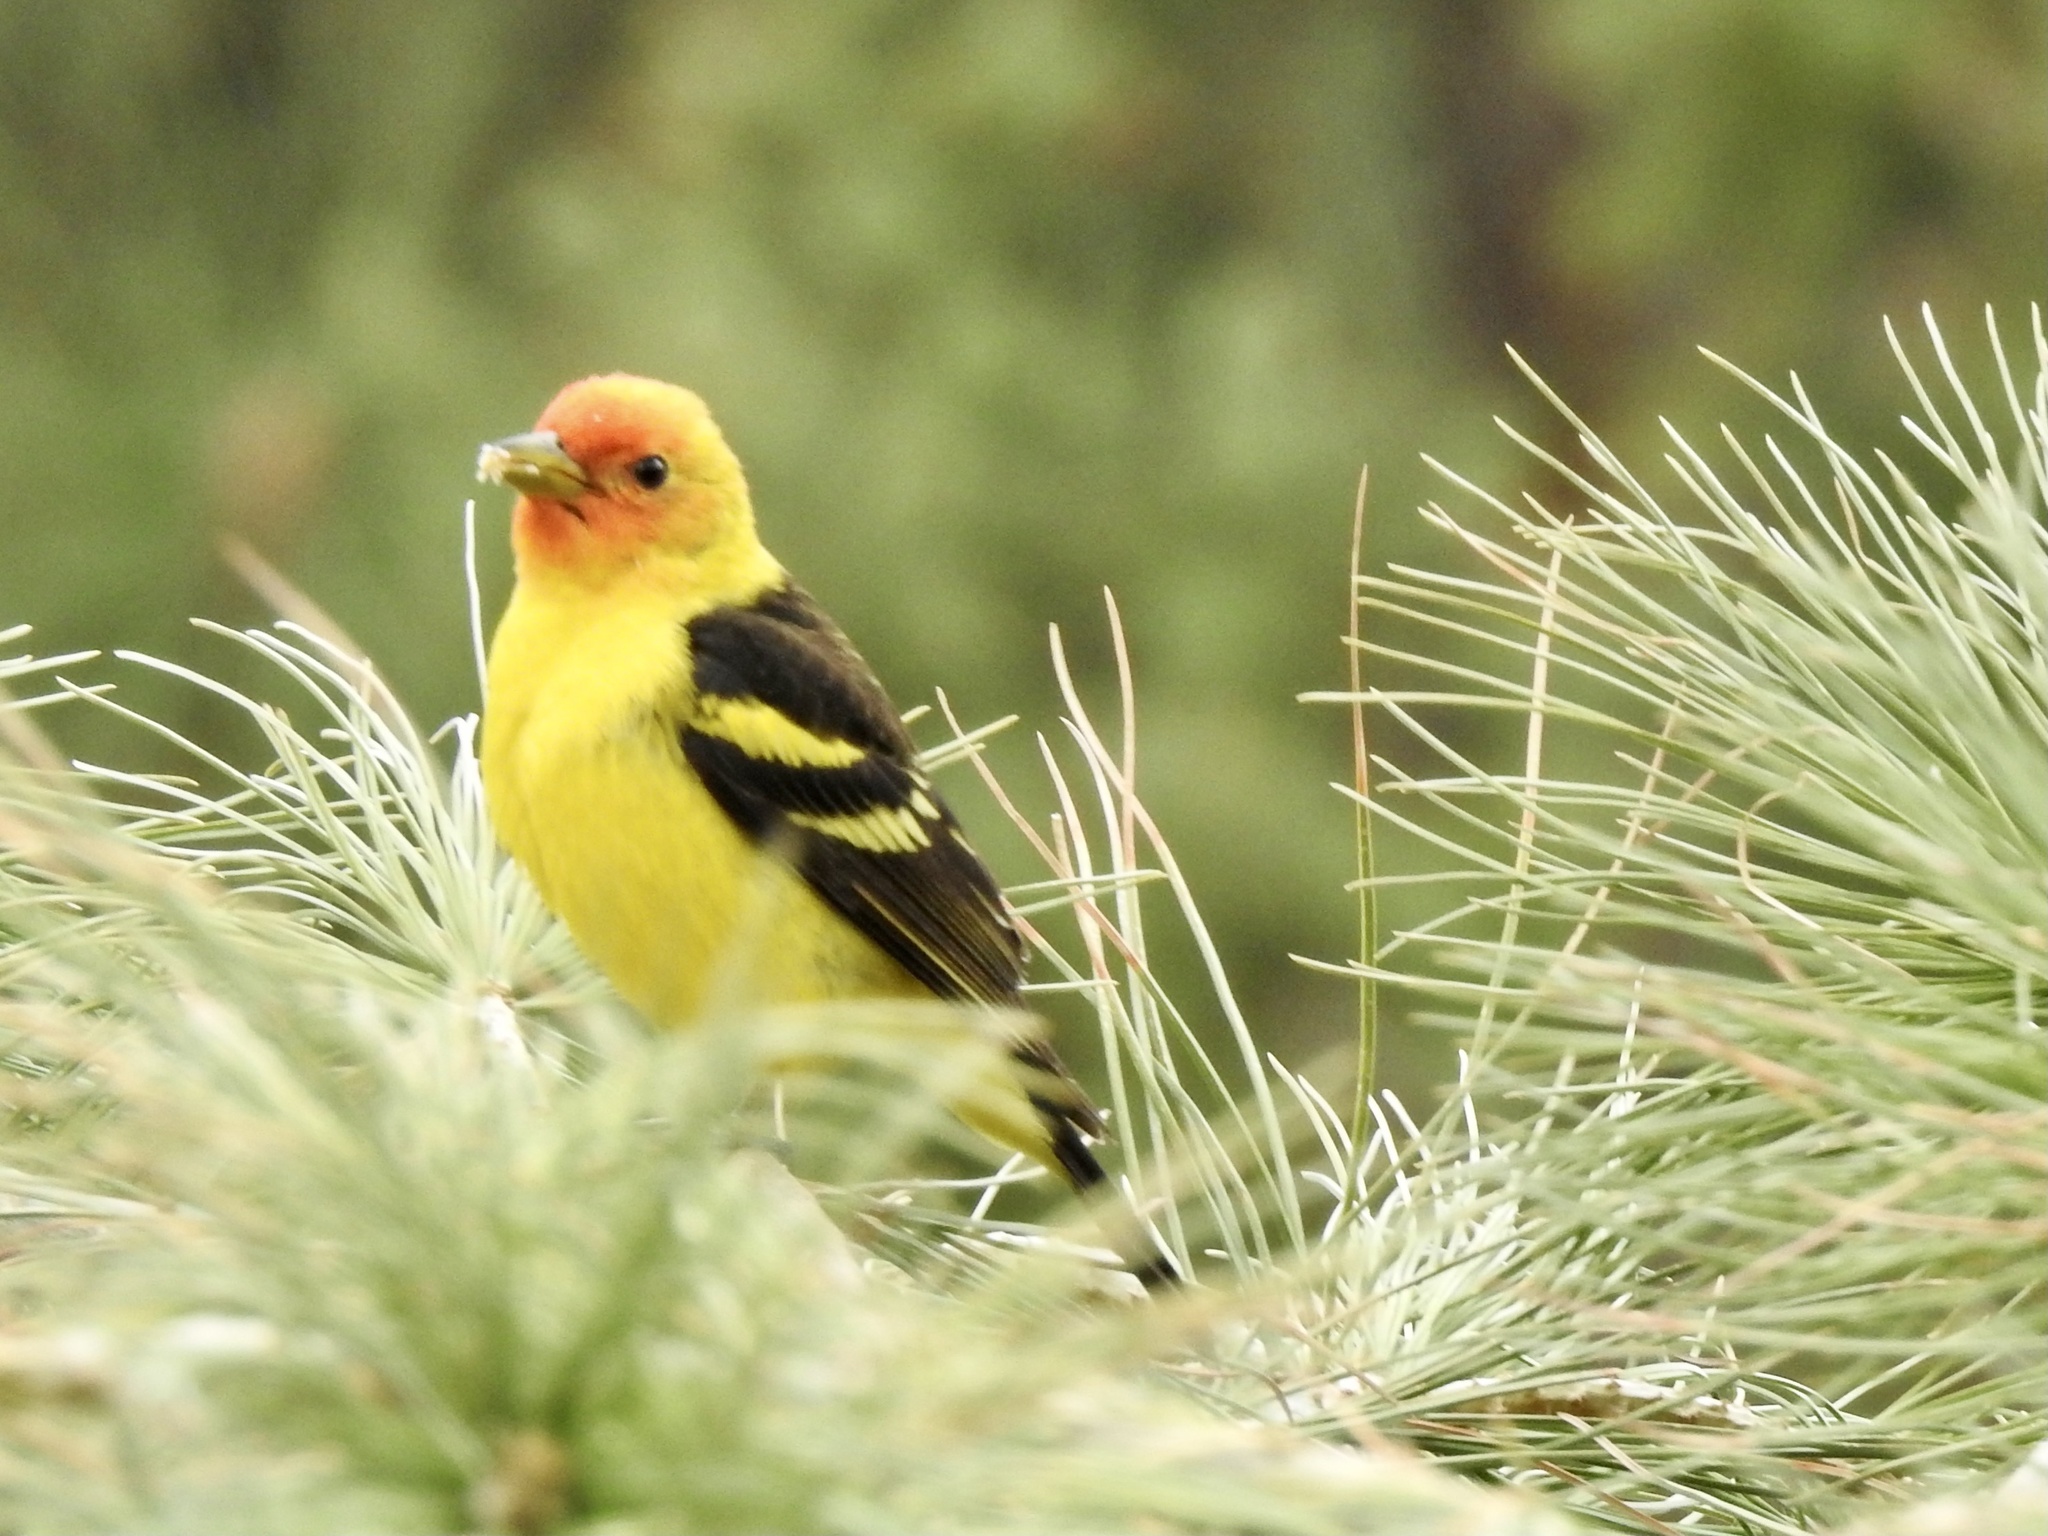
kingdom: Animalia
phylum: Chordata
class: Aves
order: Passeriformes
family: Cardinalidae
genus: Piranga
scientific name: Piranga ludoviciana
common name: Western tanager
